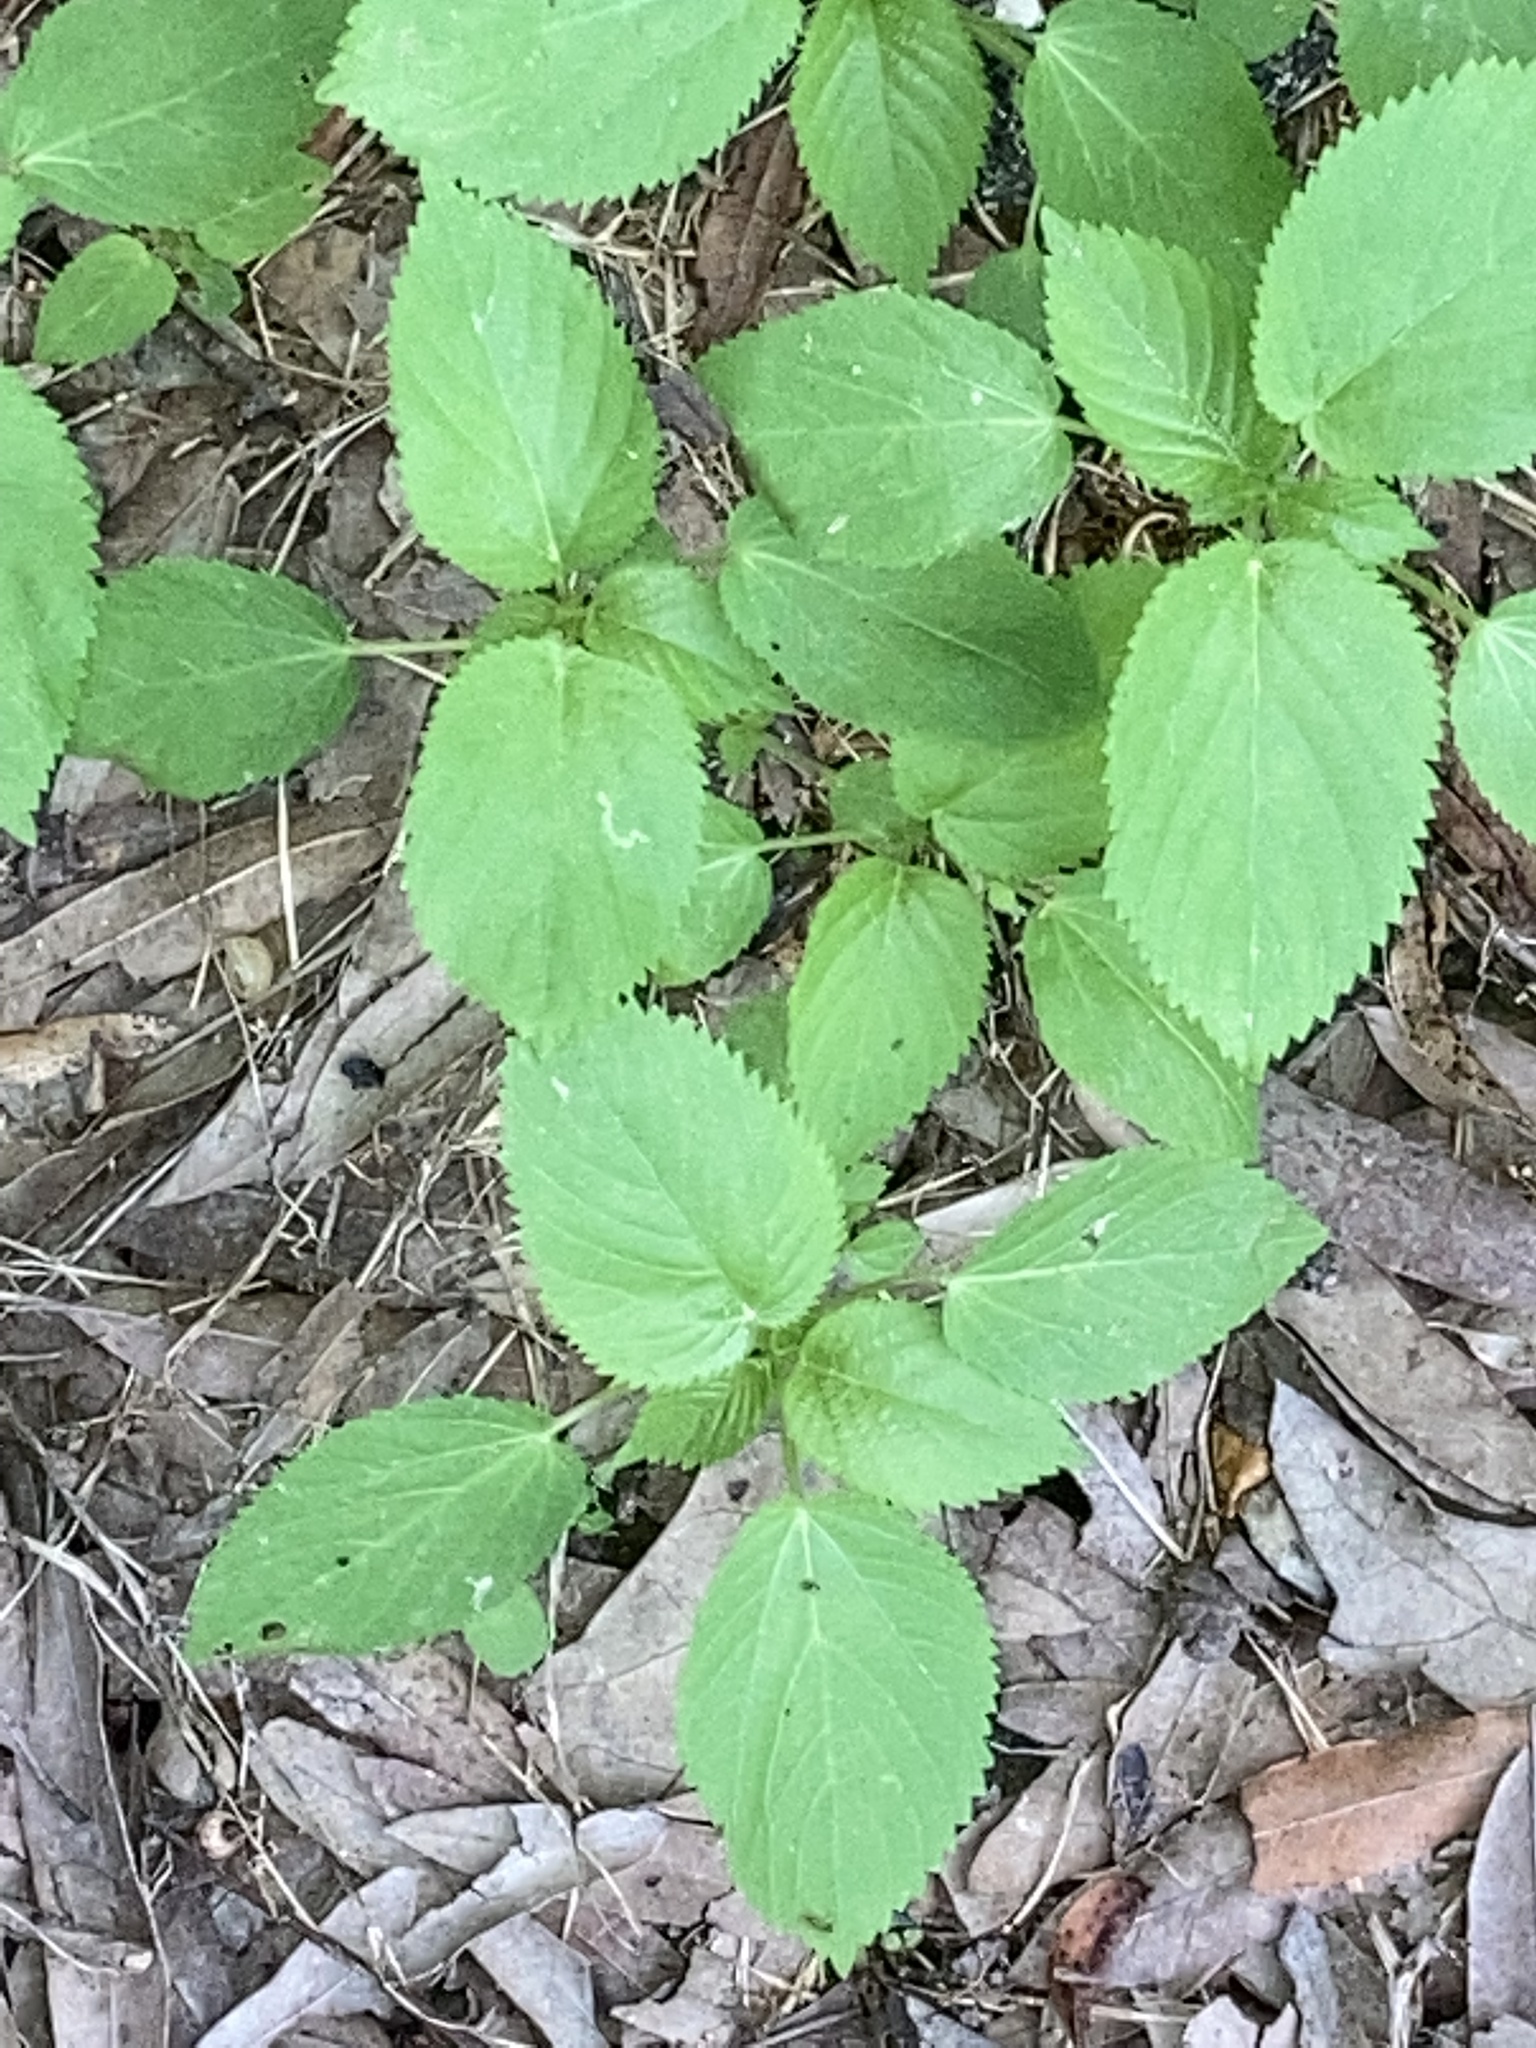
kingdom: Plantae
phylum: Tracheophyta
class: Magnoliopsida
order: Malpighiales
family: Euphorbiaceae
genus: Acalypha
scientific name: Acalypha ostryifolia
